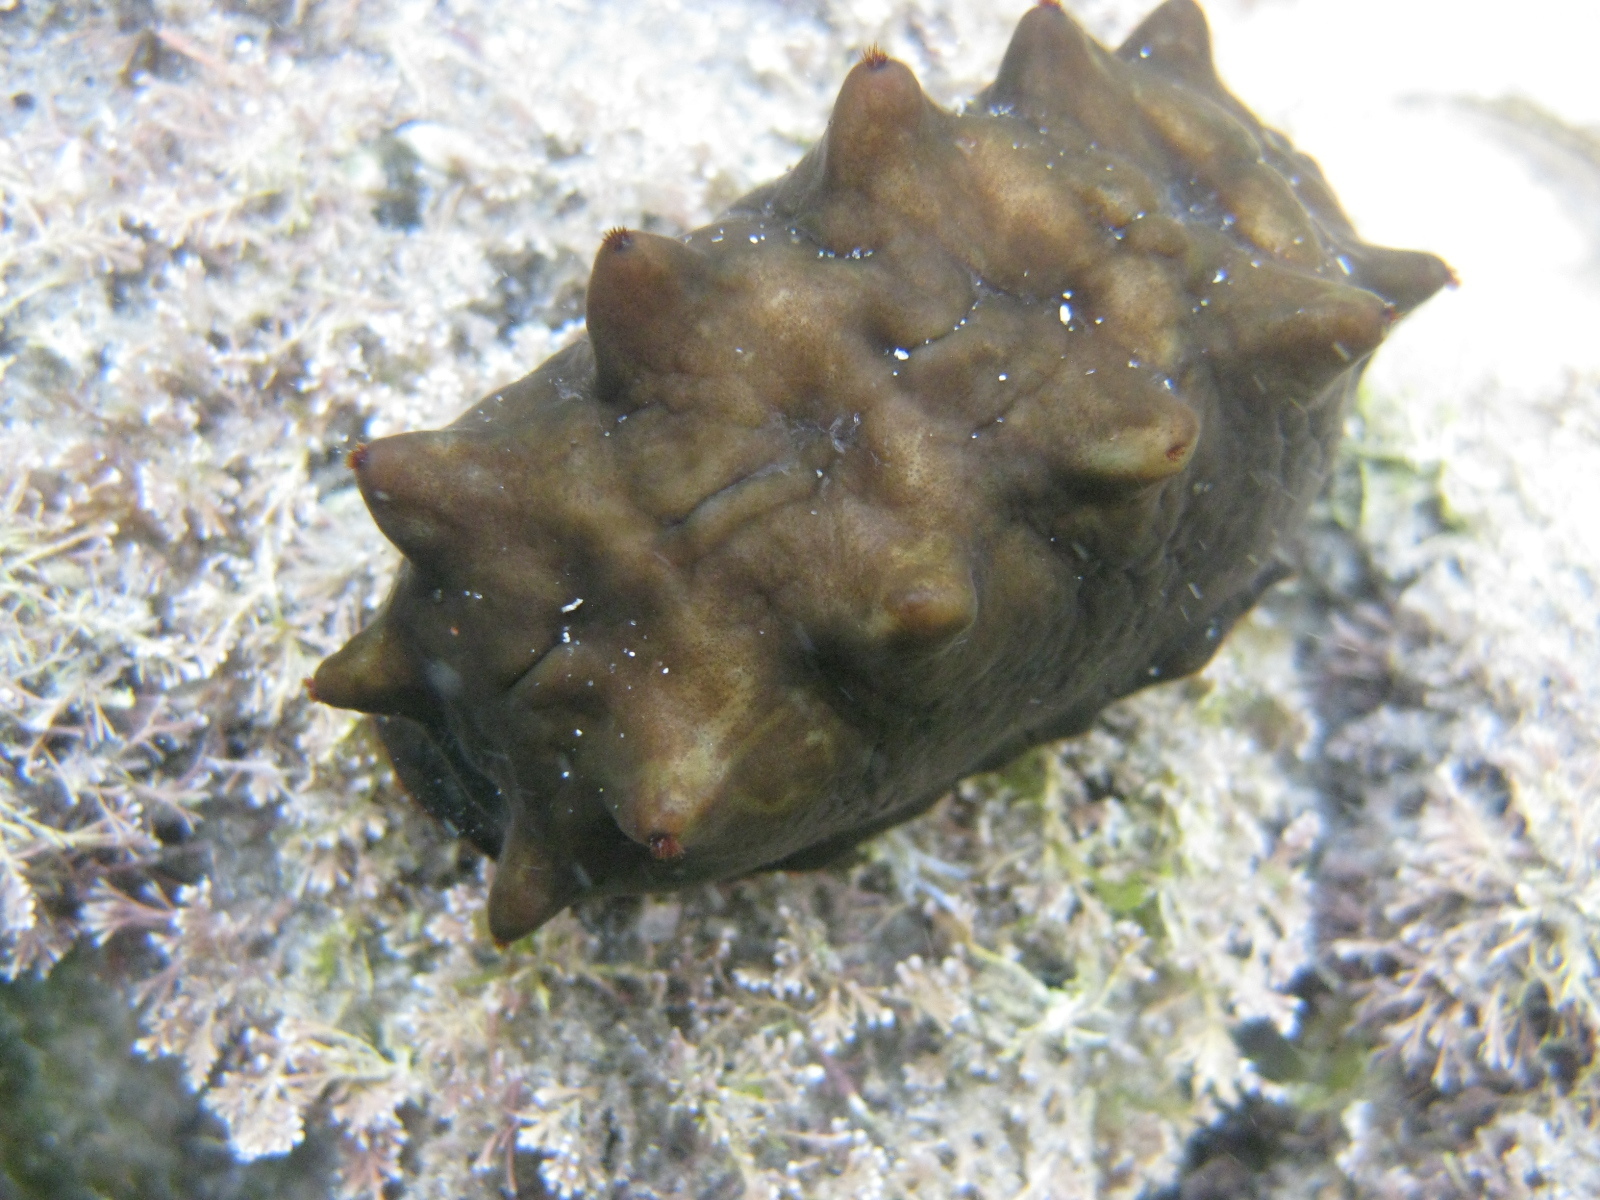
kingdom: Animalia
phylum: Mollusca
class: Polyplacophora
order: Chitonida
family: Acanthochitonidae
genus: Cryptoconchus
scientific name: Cryptoconchus porosus
